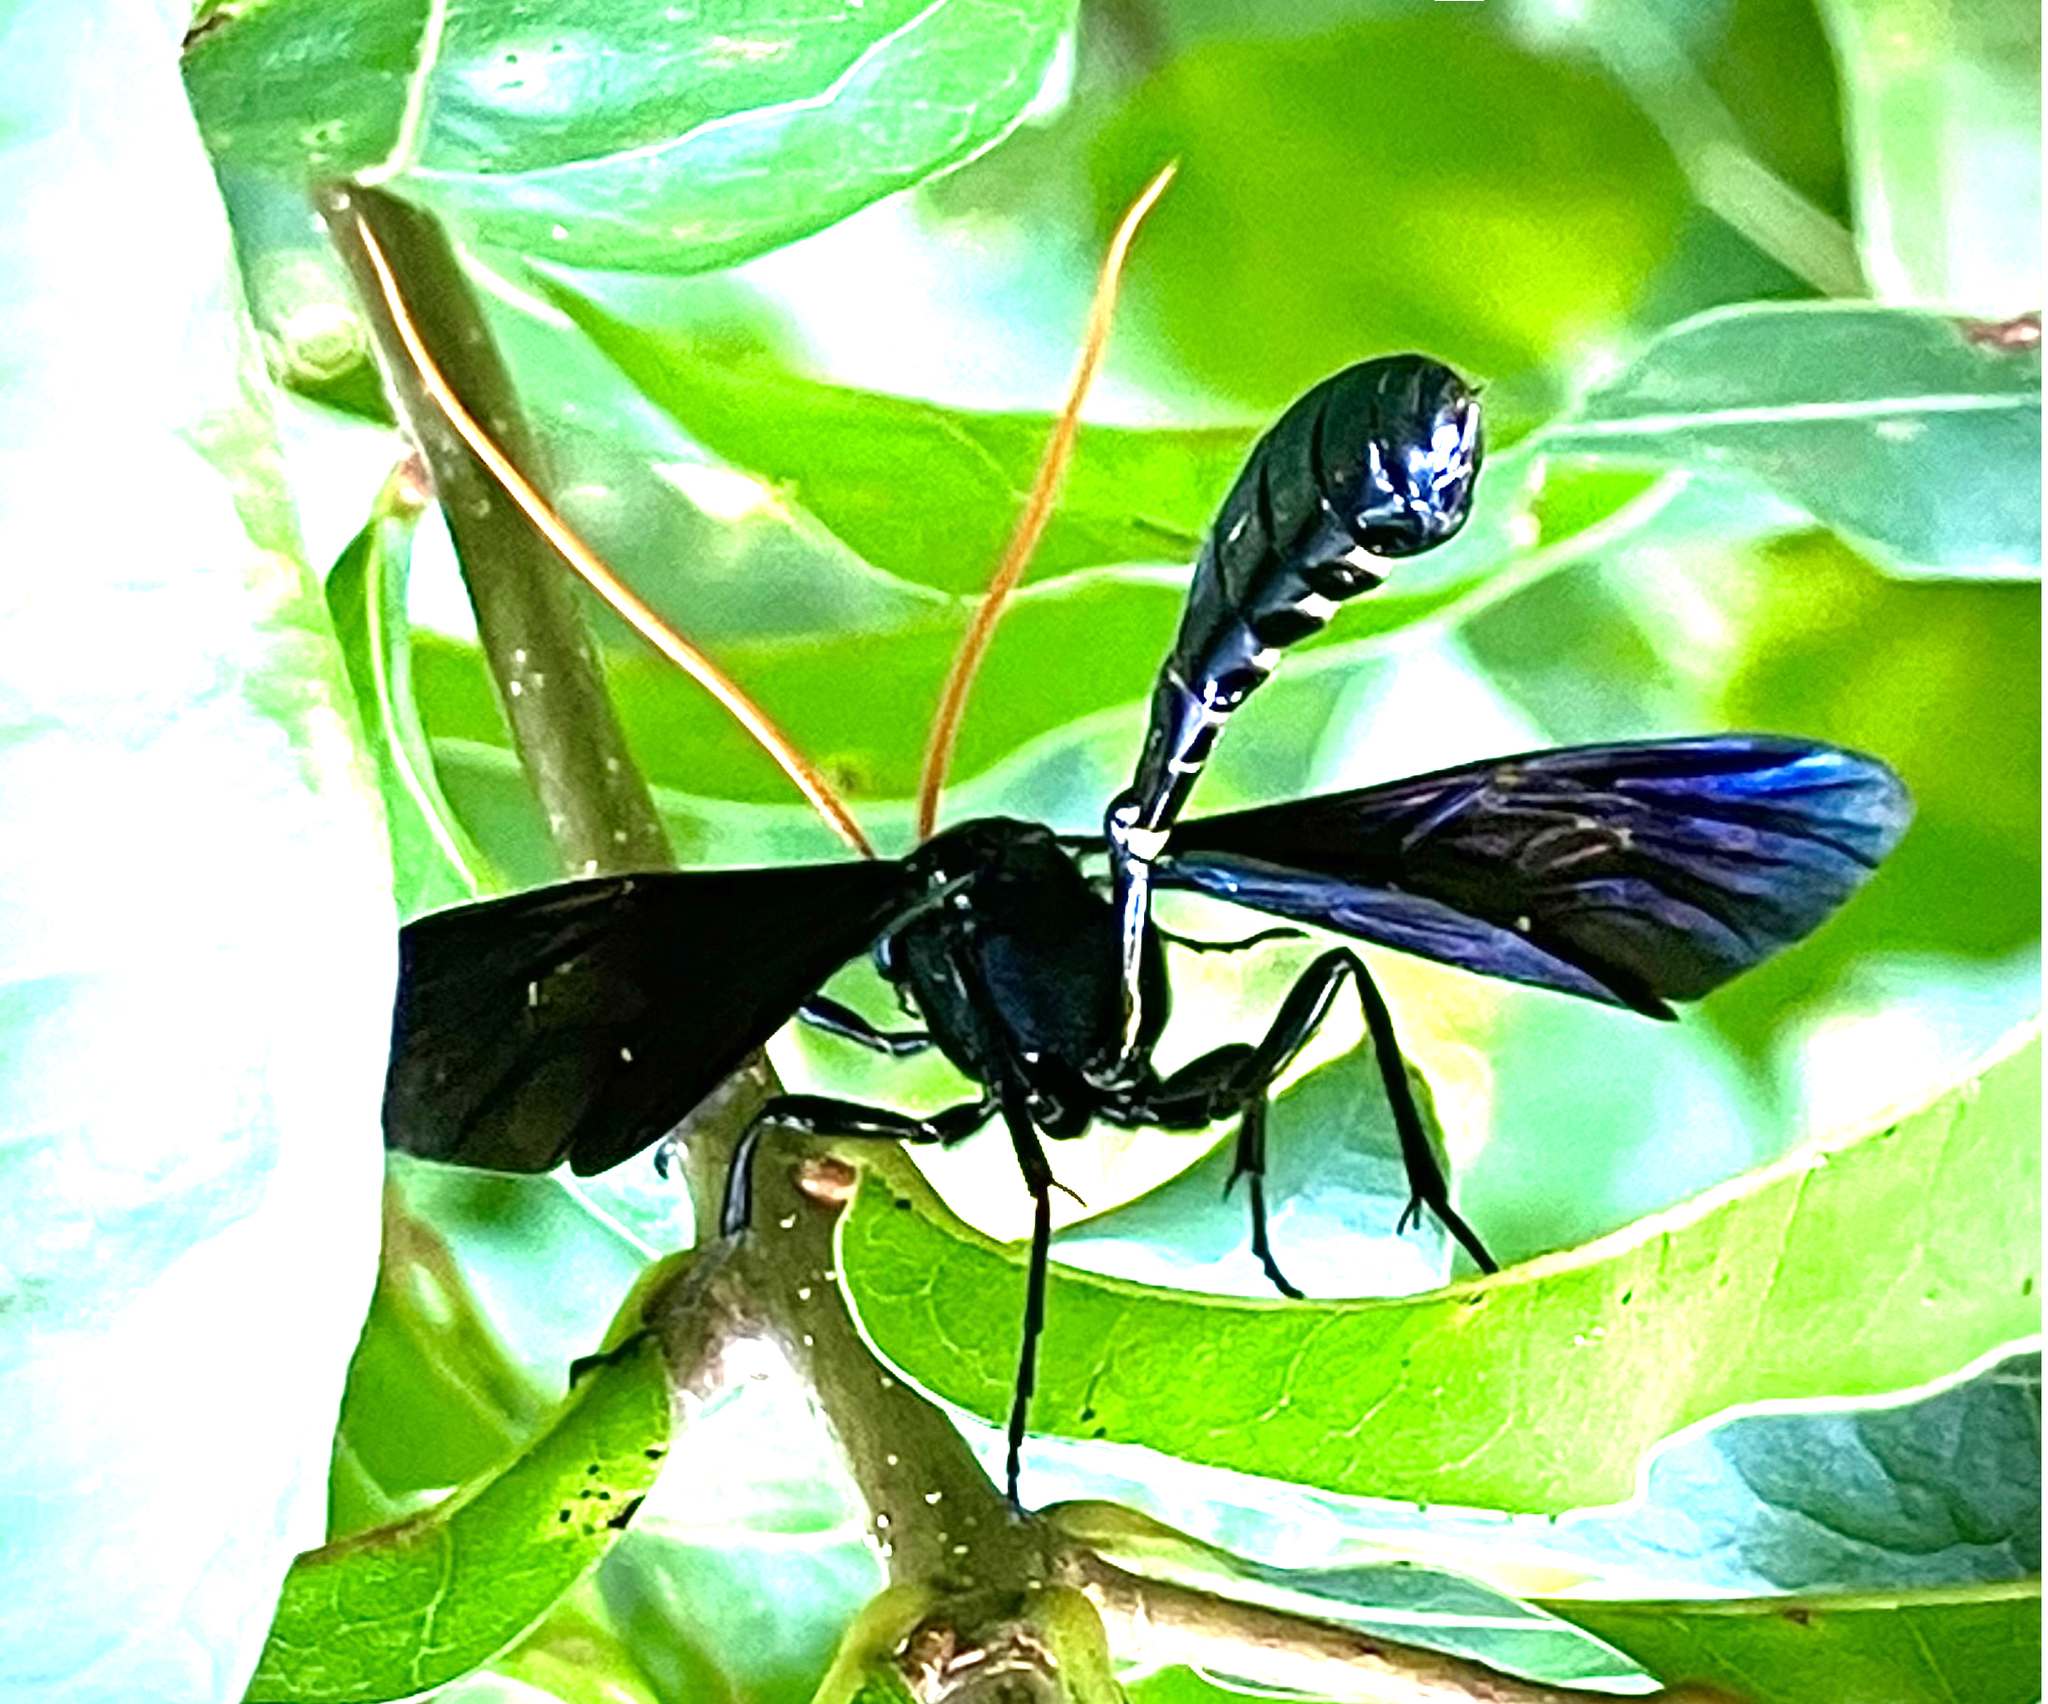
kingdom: Animalia
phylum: Arthropoda
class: Insecta
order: Hymenoptera
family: Ichneumonidae
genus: Thyreodon
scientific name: Thyreodon atricolor
